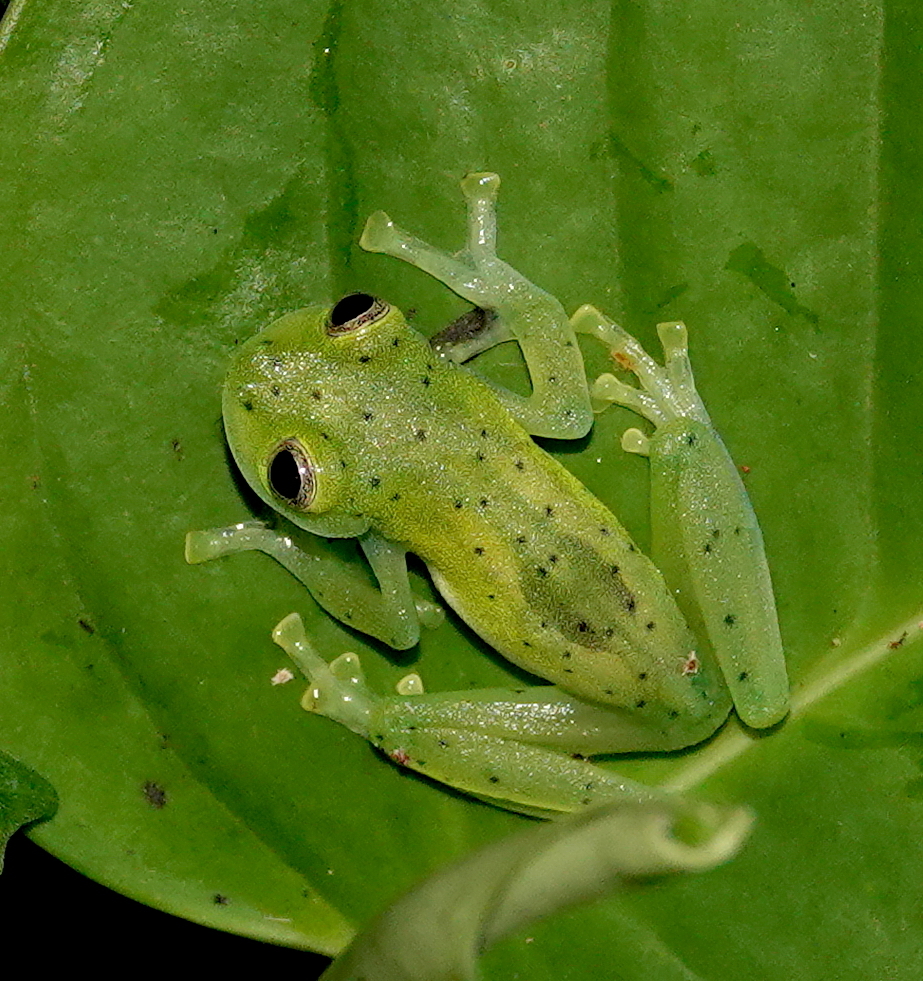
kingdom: Animalia
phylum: Chordata
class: Amphibia
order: Anura
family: Centrolenidae
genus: Espadarana
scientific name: Espadarana prosoblepon
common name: Rana de cristal variable
